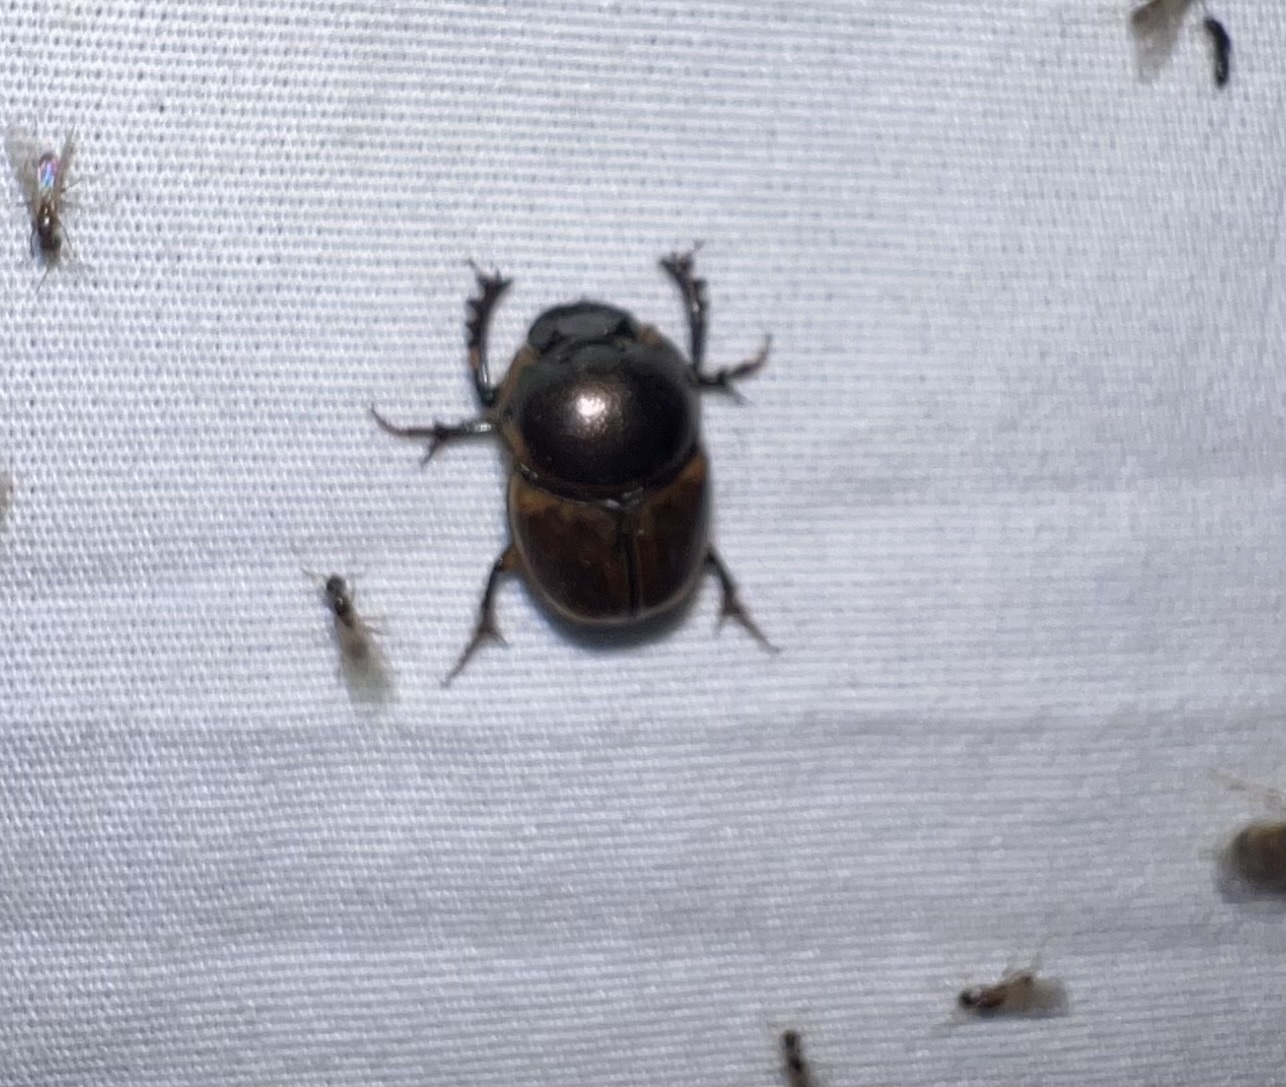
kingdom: Animalia
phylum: Arthropoda
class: Insecta
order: Coleoptera
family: Scarabaeidae
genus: Digitonthophagus
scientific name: Digitonthophagus gazella
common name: Brown dung beetle
